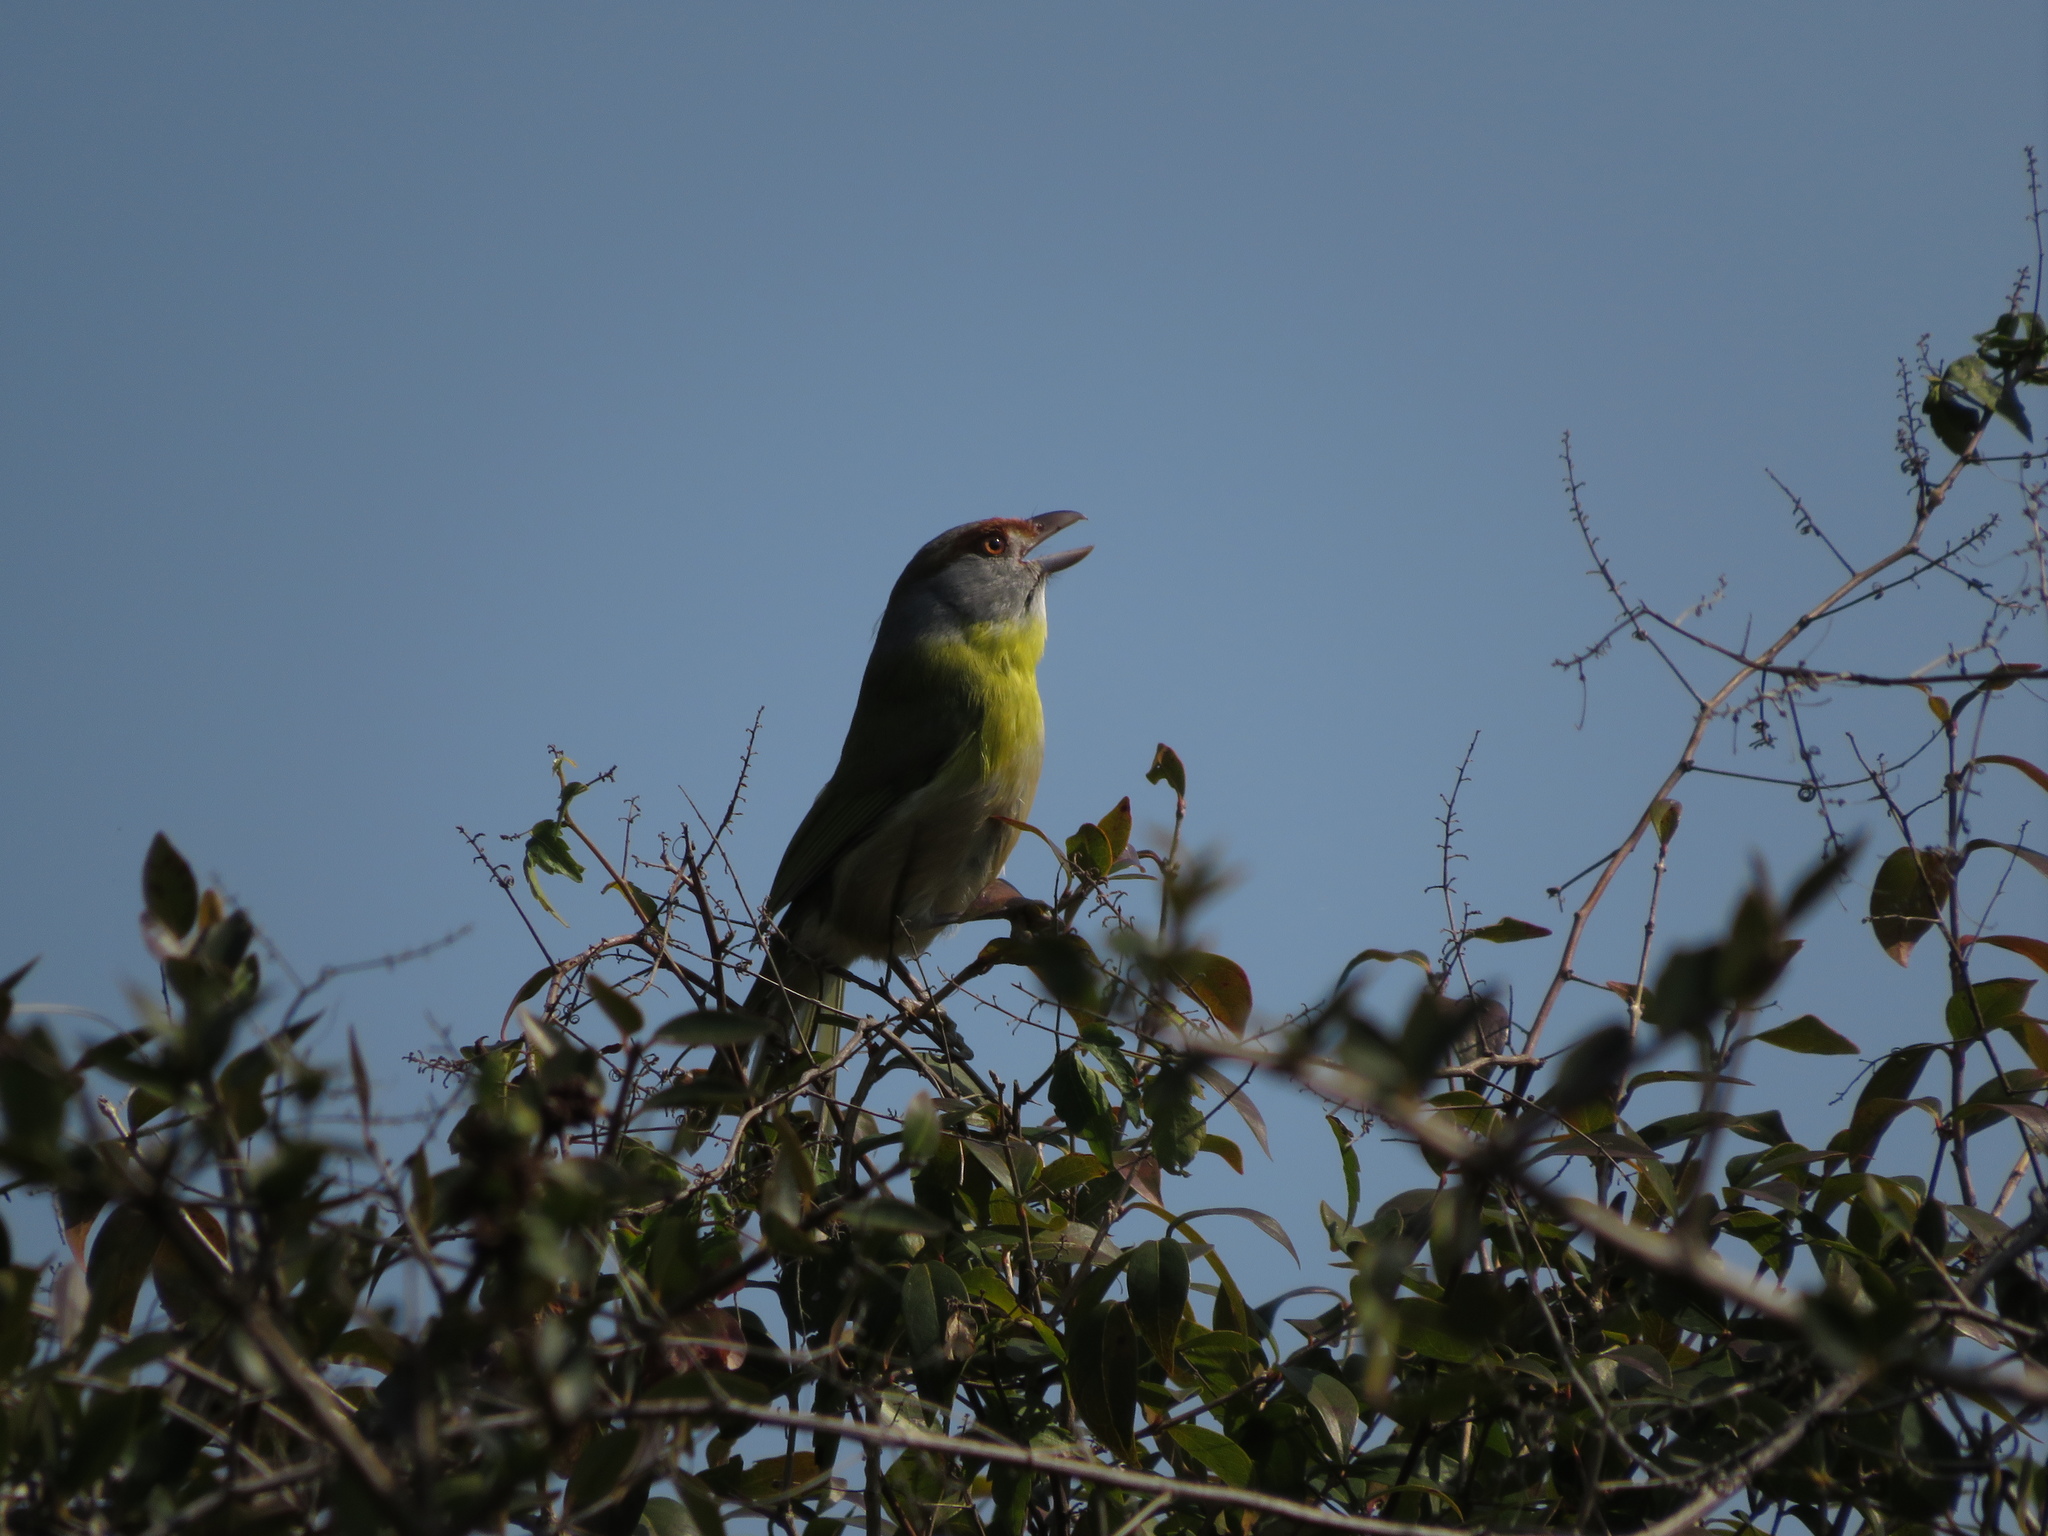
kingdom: Animalia
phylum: Chordata
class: Aves
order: Passeriformes
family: Vireonidae
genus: Cyclarhis
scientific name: Cyclarhis gujanensis
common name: Rufous-browed peppershrike
